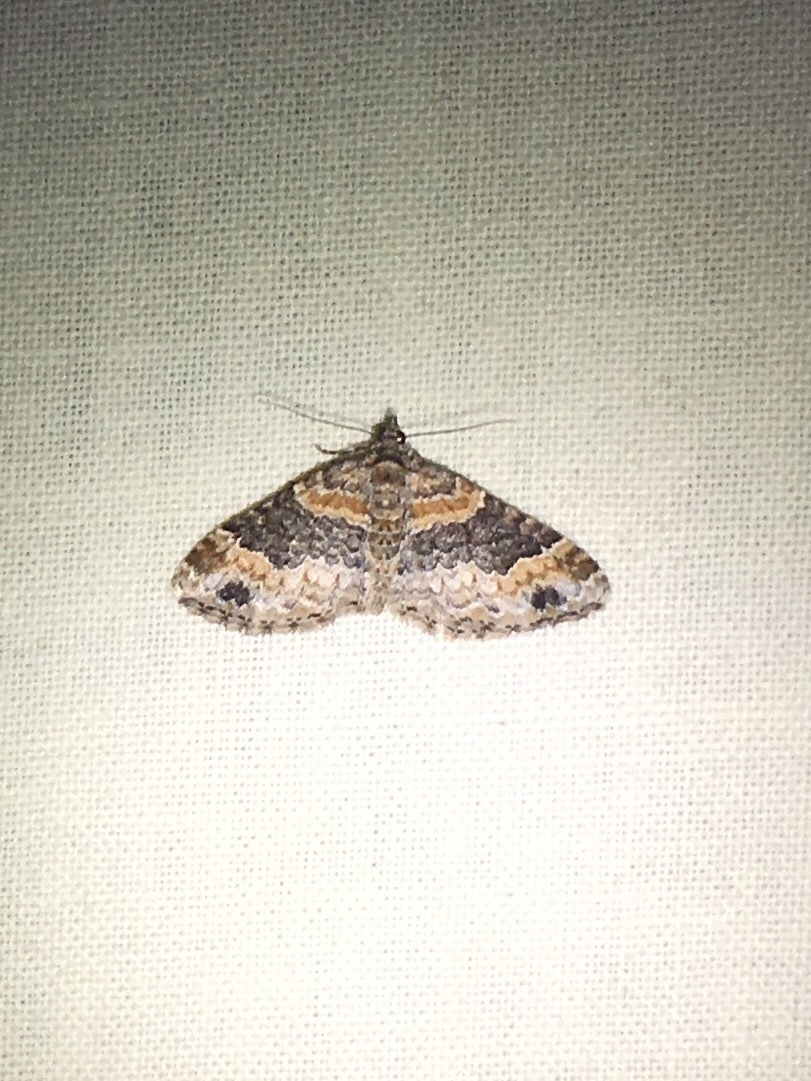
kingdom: Animalia
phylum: Arthropoda
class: Insecta
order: Lepidoptera
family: Geometridae
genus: Xanthorhoe
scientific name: Xanthorhoe ferrugata
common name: Dark-barred twin-spot carpet
